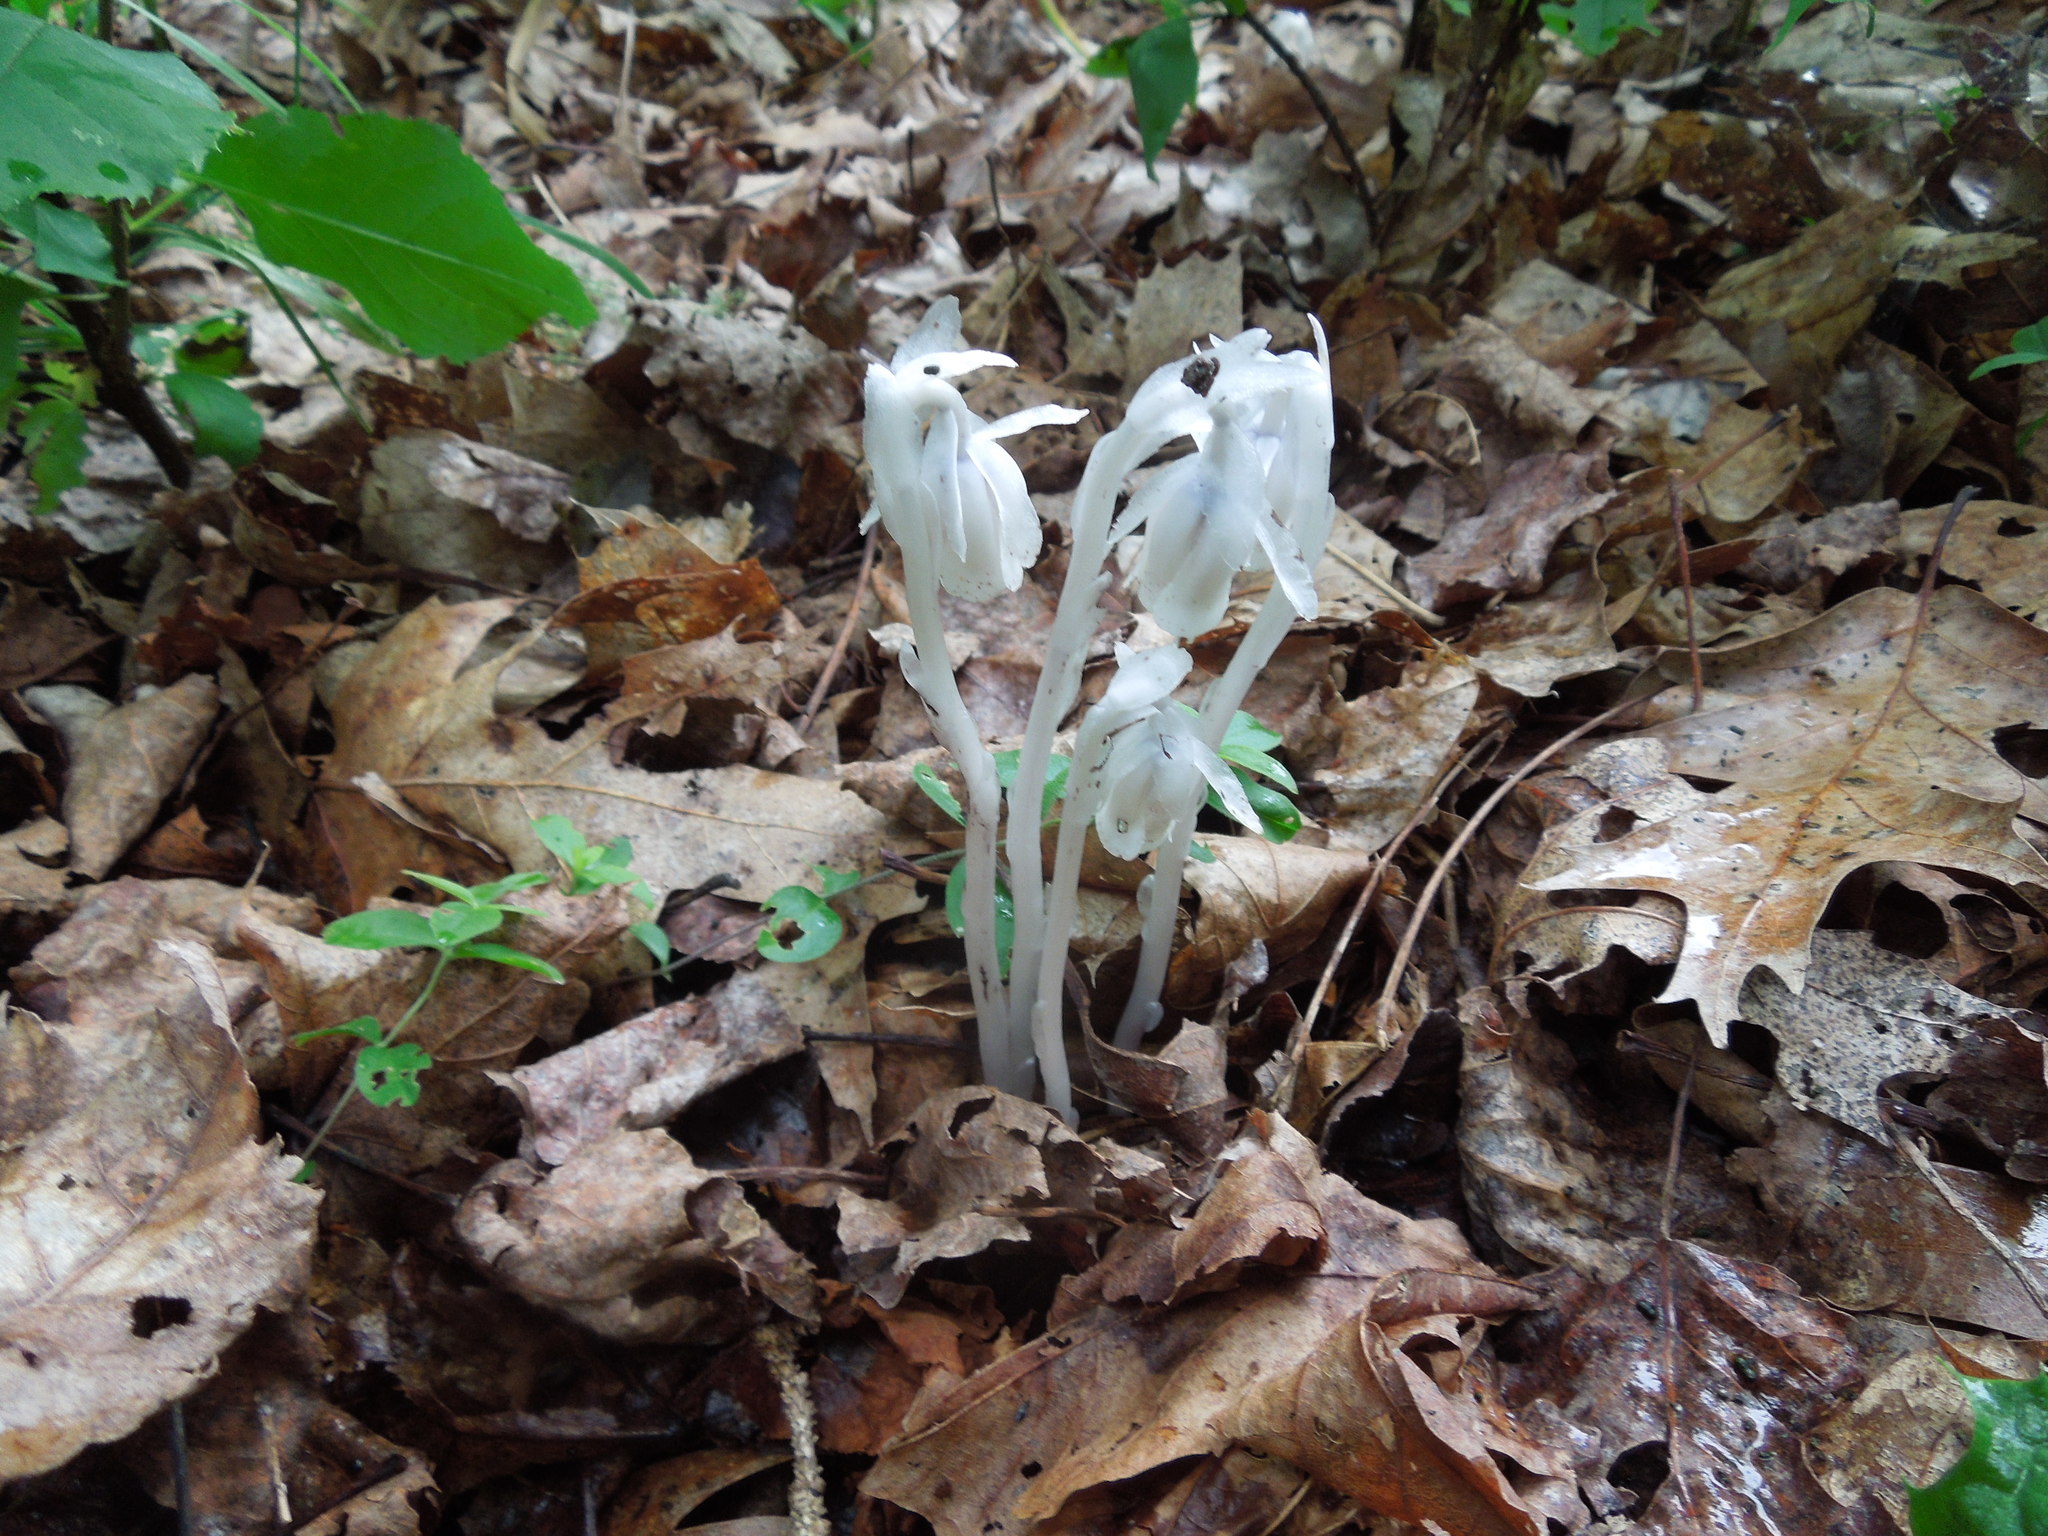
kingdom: Plantae
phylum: Tracheophyta
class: Magnoliopsida
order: Ericales
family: Ericaceae
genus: Monotropa
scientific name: Monotropa uniflora
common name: Convulsion root
